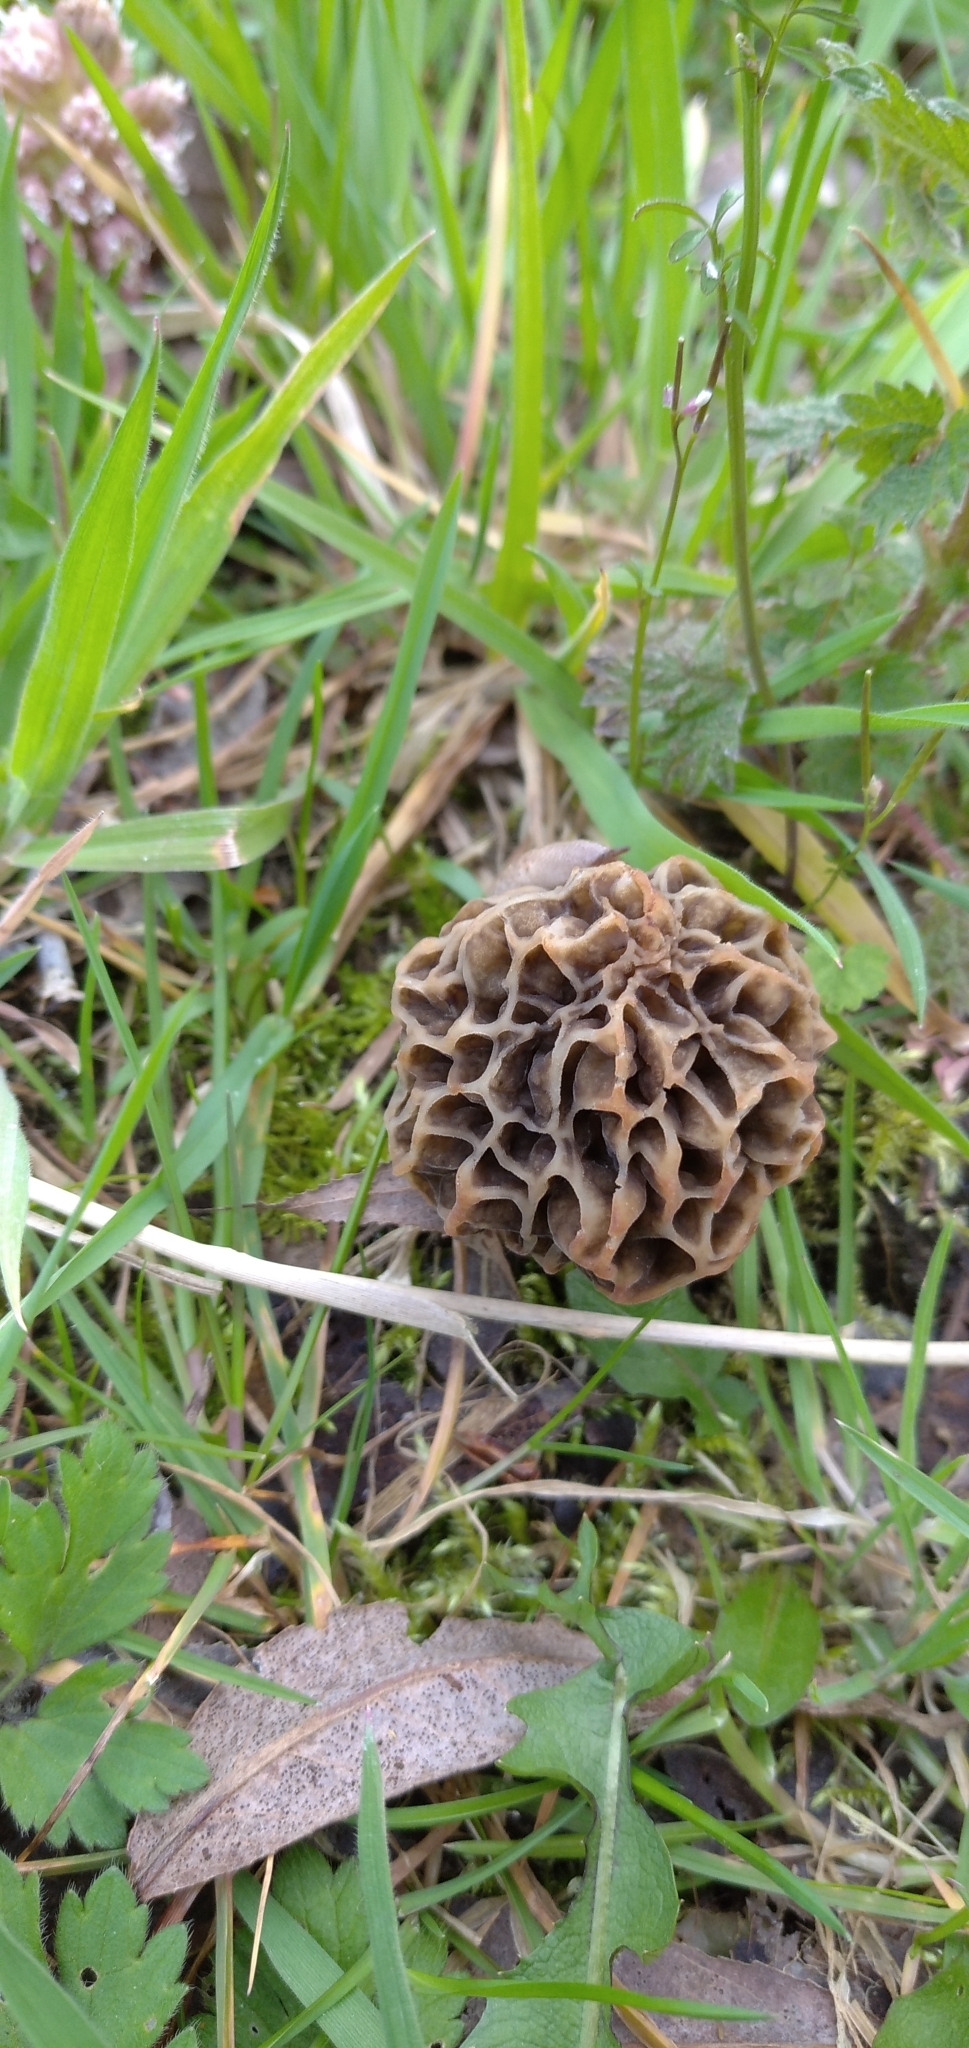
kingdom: Fungi
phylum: Ascomycota
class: Pezizomycetes
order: Pezizales
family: Morchellaceae
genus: Morchella
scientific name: Morchella esculenta
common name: Morel
